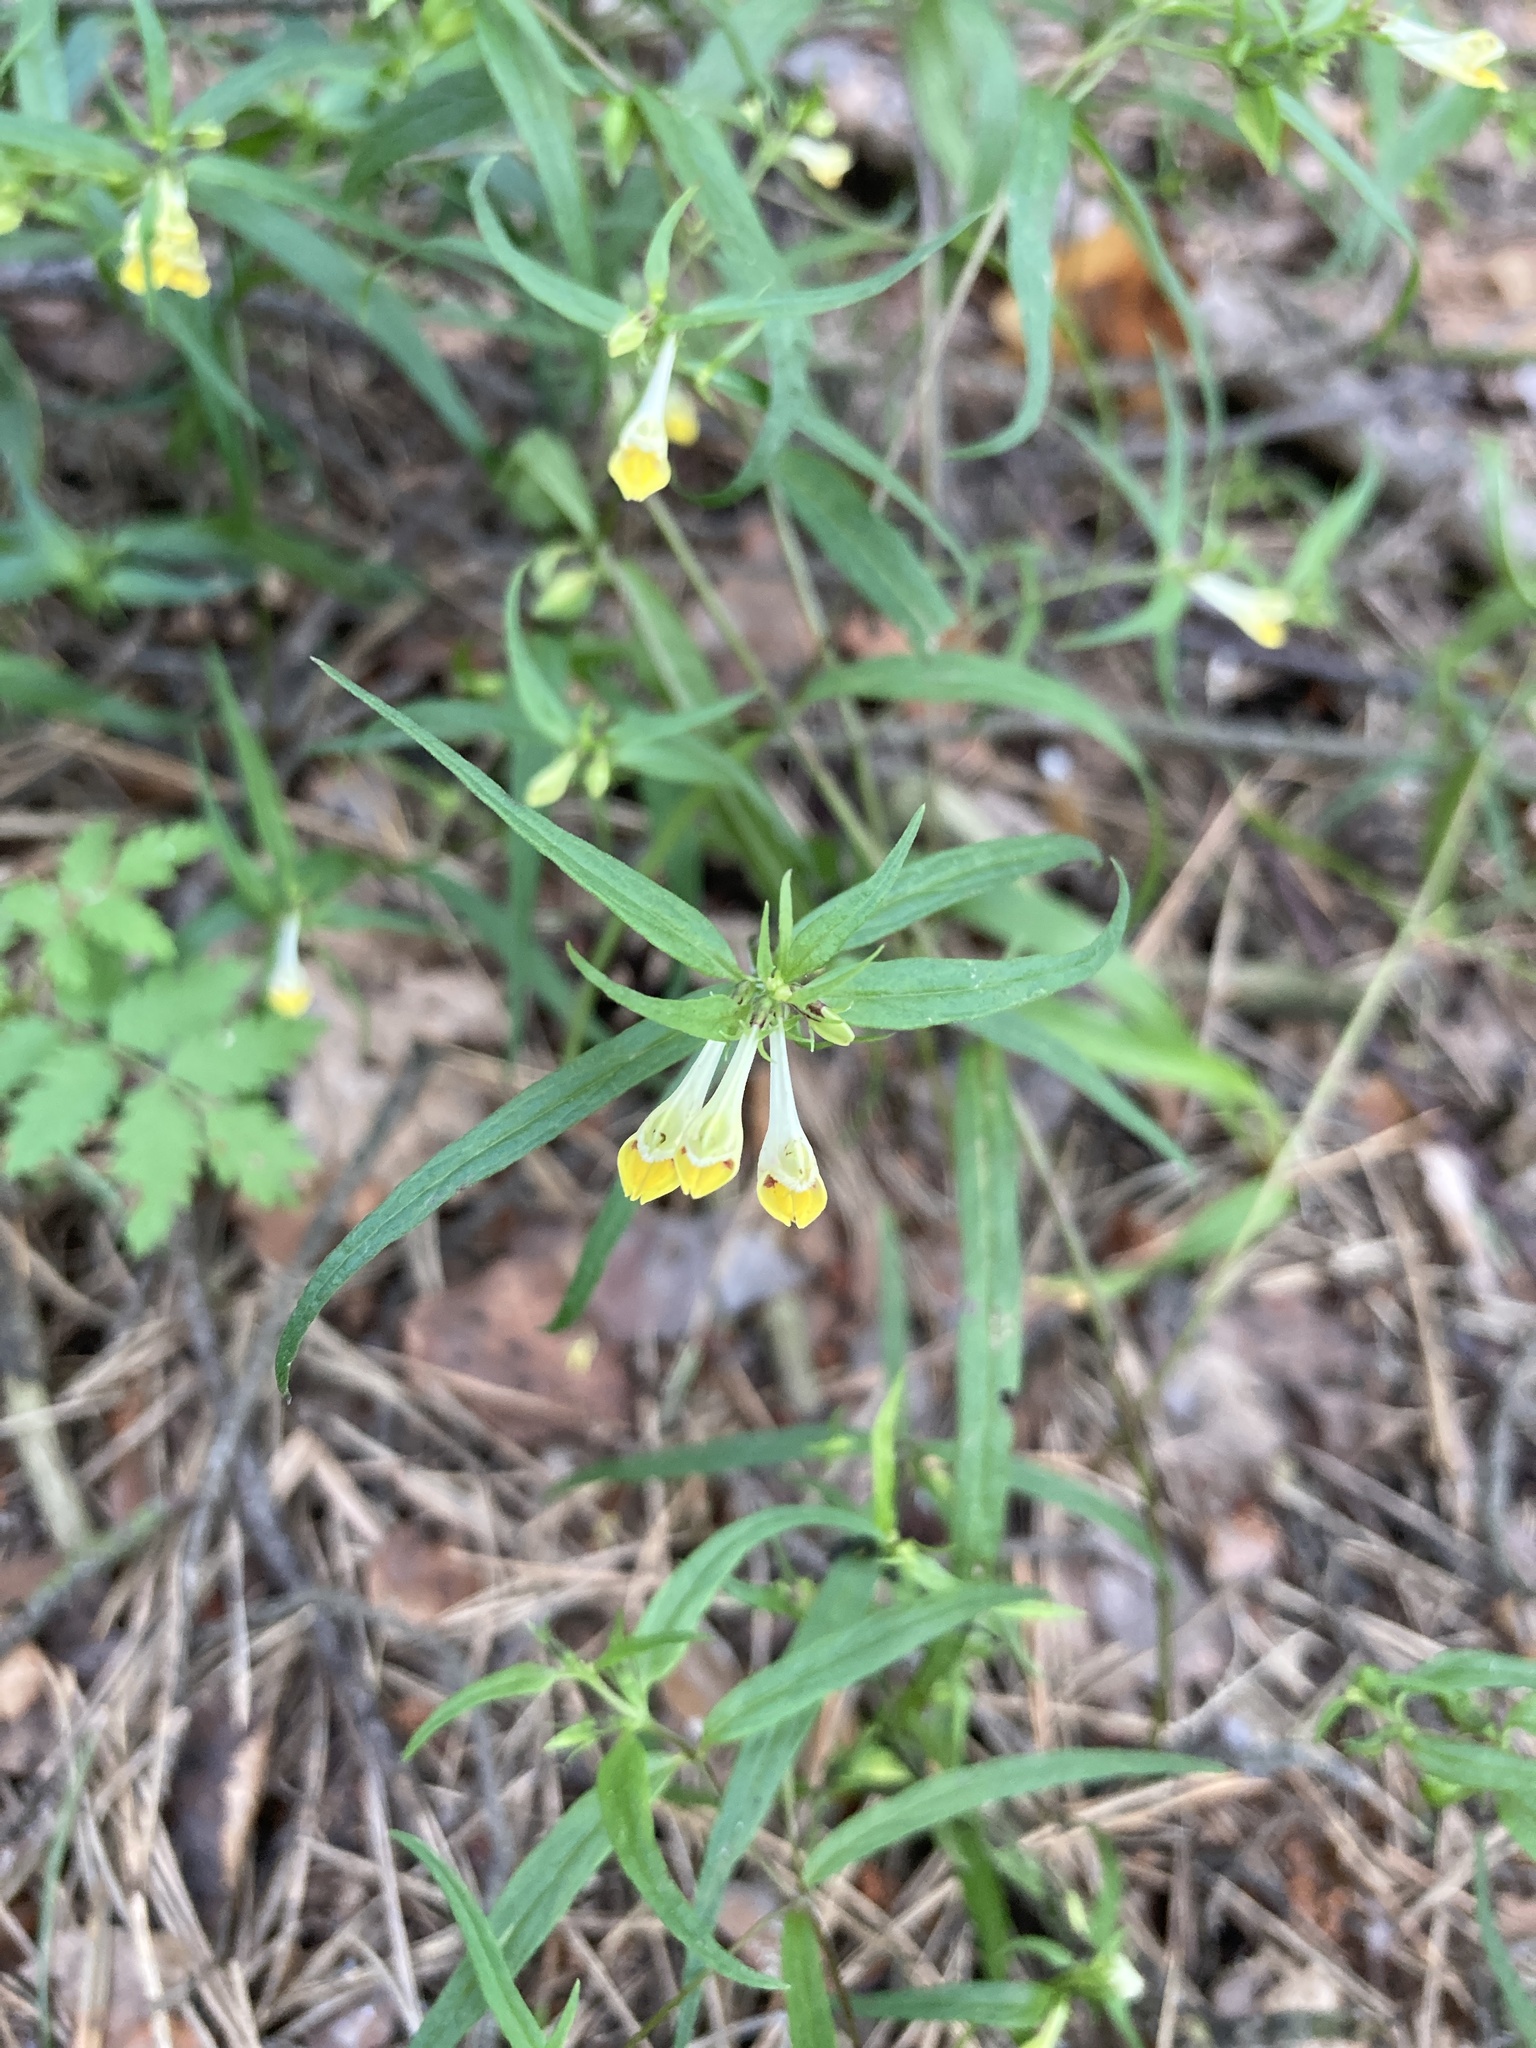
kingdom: Plantae
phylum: Tracheophyta
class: Magnoliopsida
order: Lamiales
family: Orobanchaceae
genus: Melampyrum
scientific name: Melampyrum pratense
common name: Common cow-wheat
